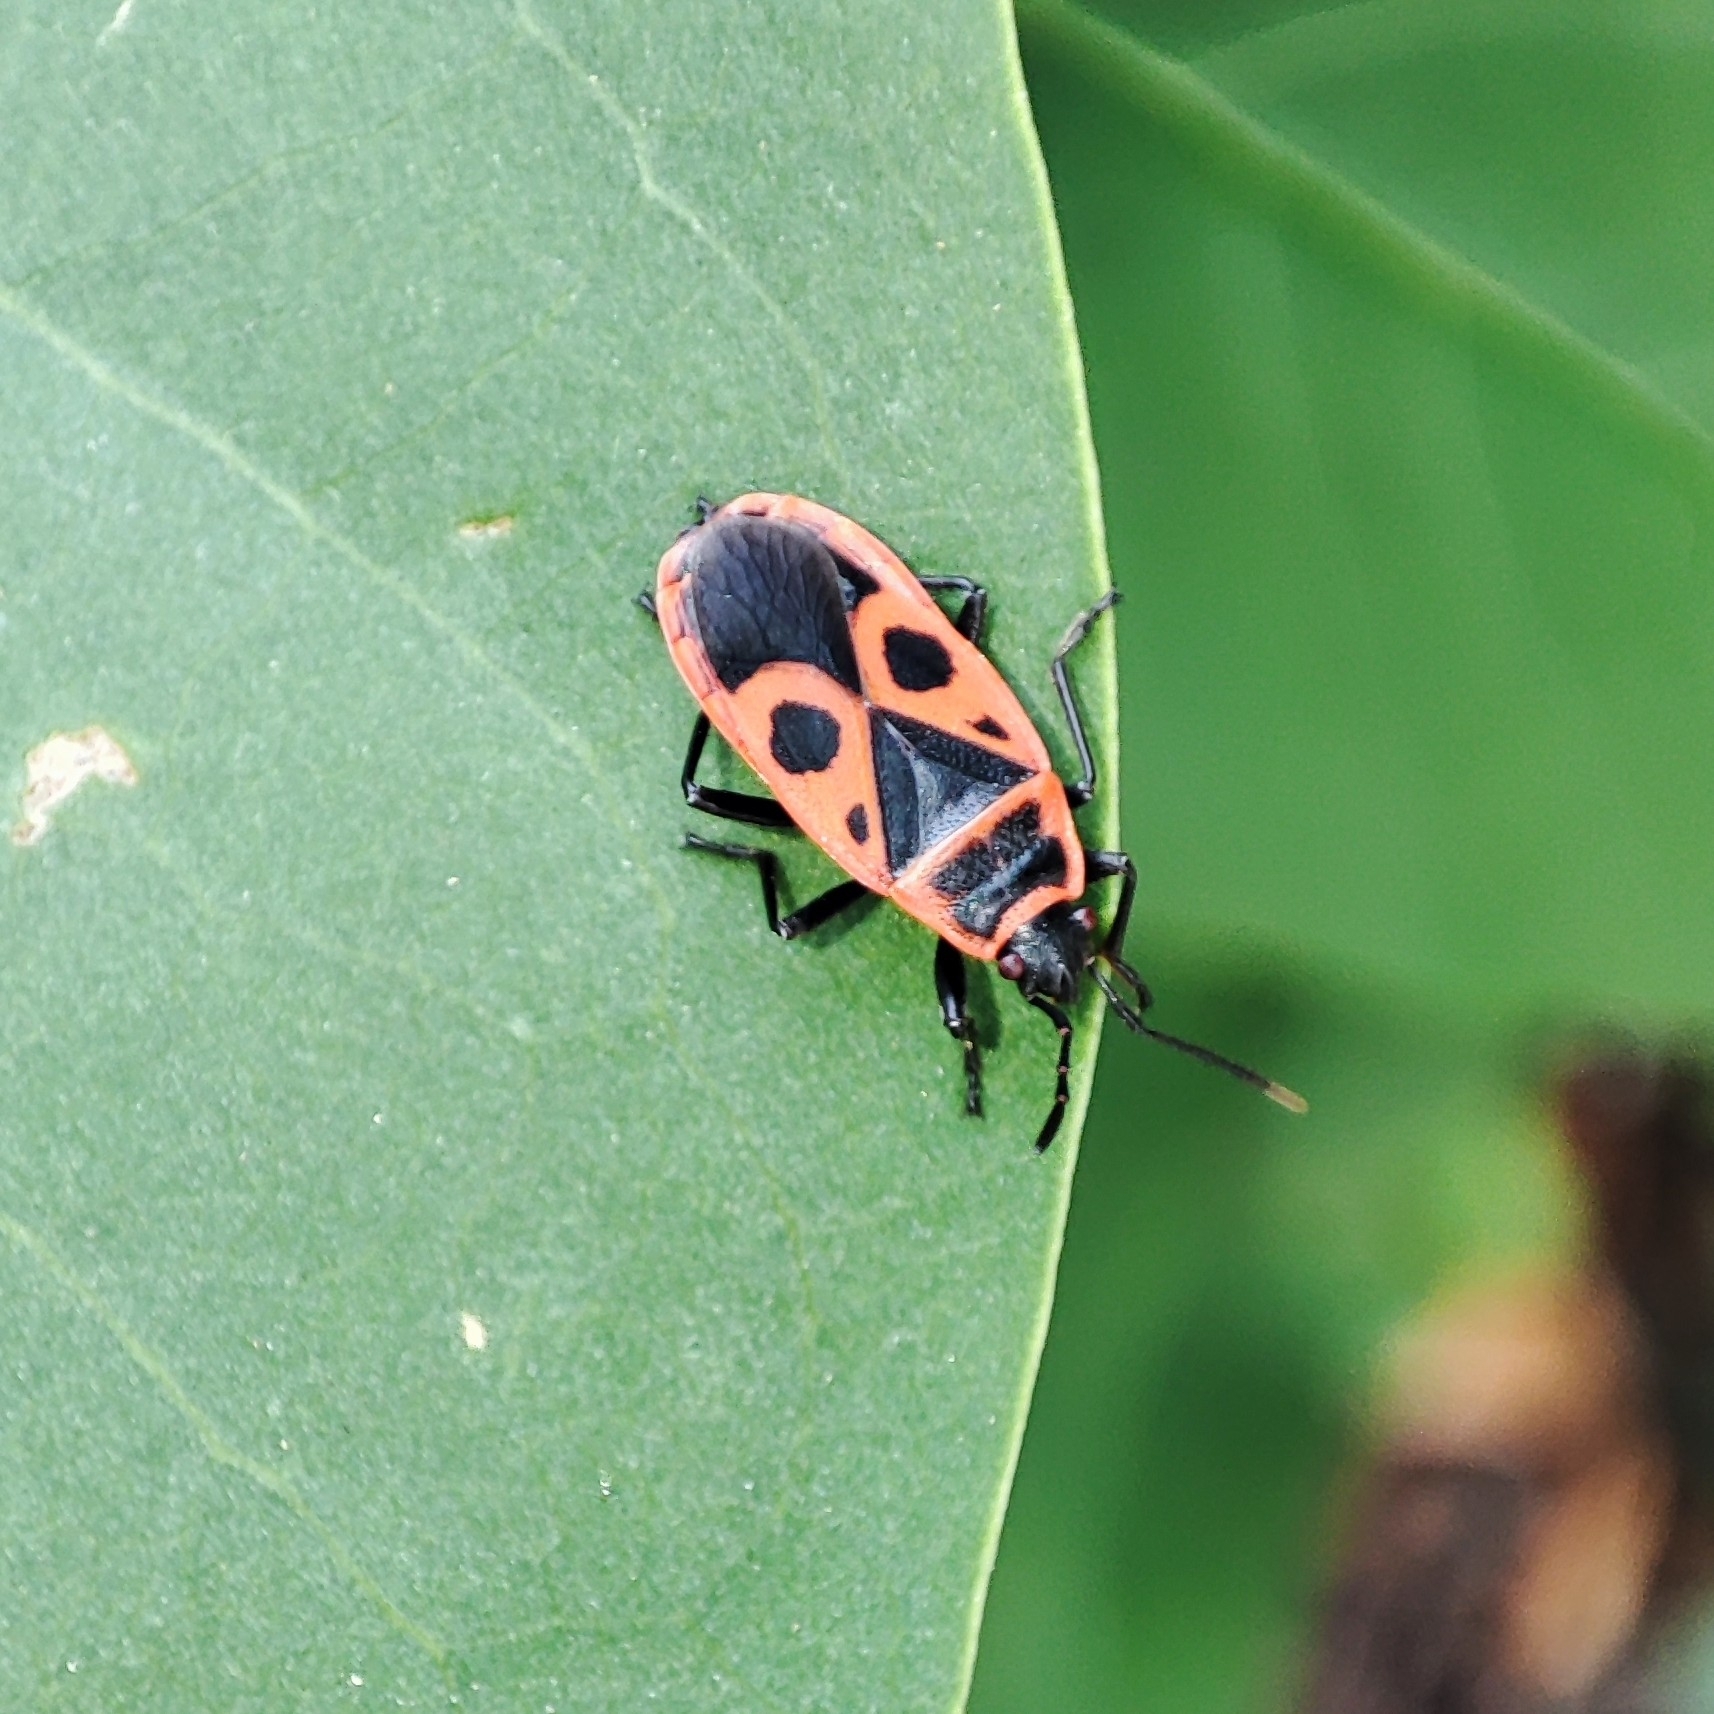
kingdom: Animalia
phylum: Arthropoda
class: Insecta
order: Hemiptera
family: Pyrrhocoridae
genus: Pyrrhocoris
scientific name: Pyrrhocoris apterus
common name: Firebug
